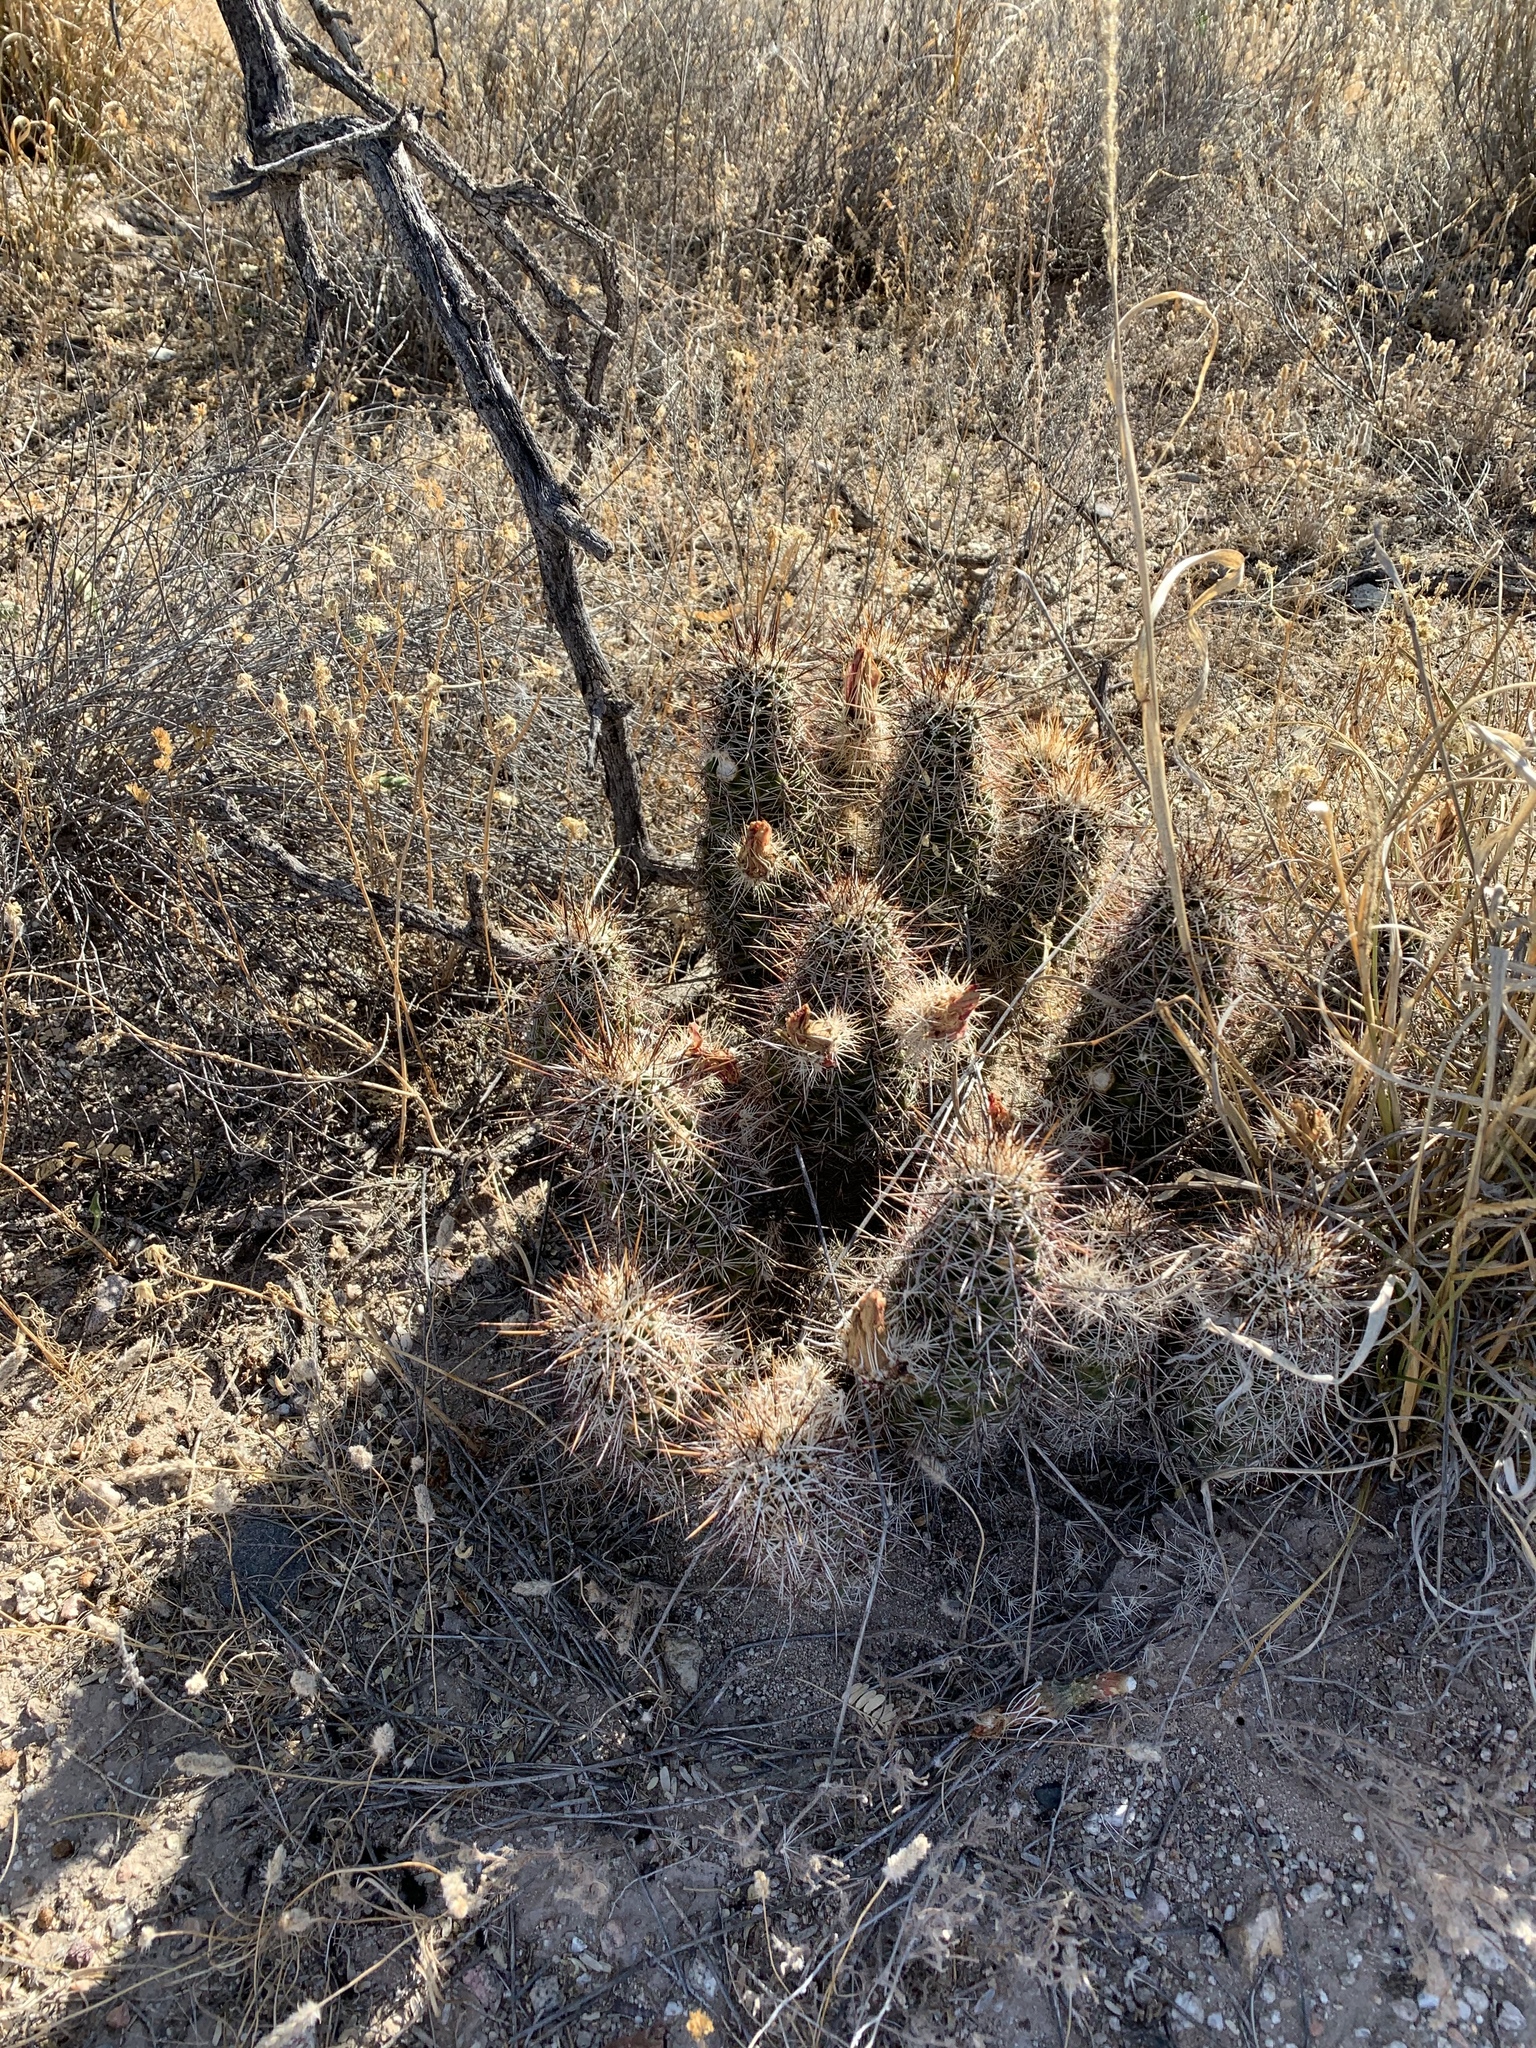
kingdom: Plantae
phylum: Tracheophyta
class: Magnoliopsida
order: Caryophyllales
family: Cactaceae
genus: Echinocereus
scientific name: Echinocereus fasciculatus
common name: Bundle hedgehog
